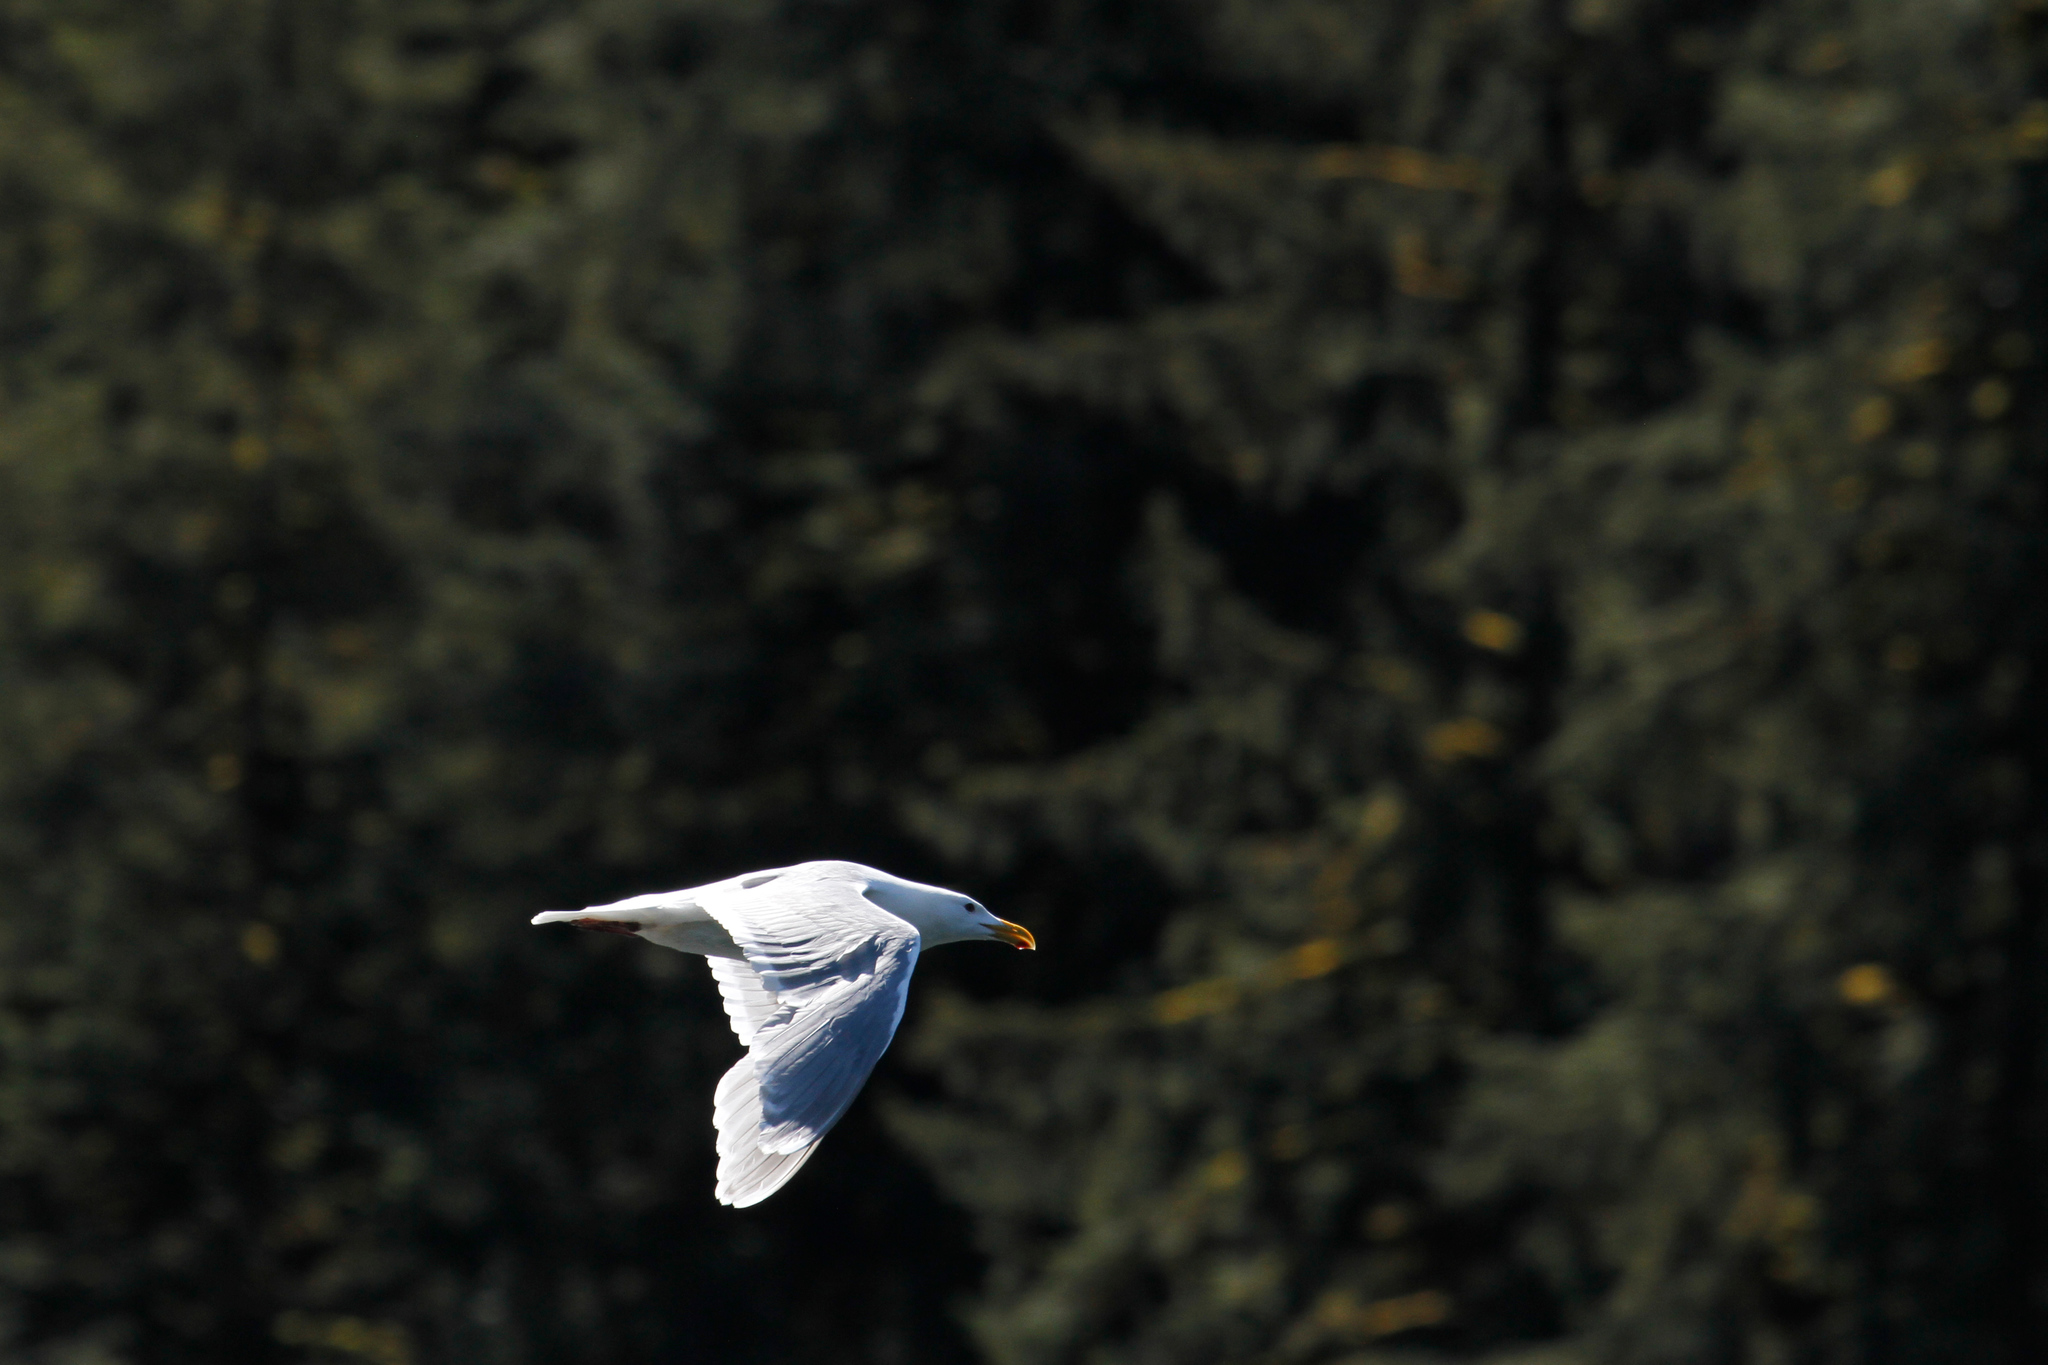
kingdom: Animalia
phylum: Chordata
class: Aves
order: Charadriiformes
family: Laridae
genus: Larus
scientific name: Larus glaucescens
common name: Glaucous-winged gull
